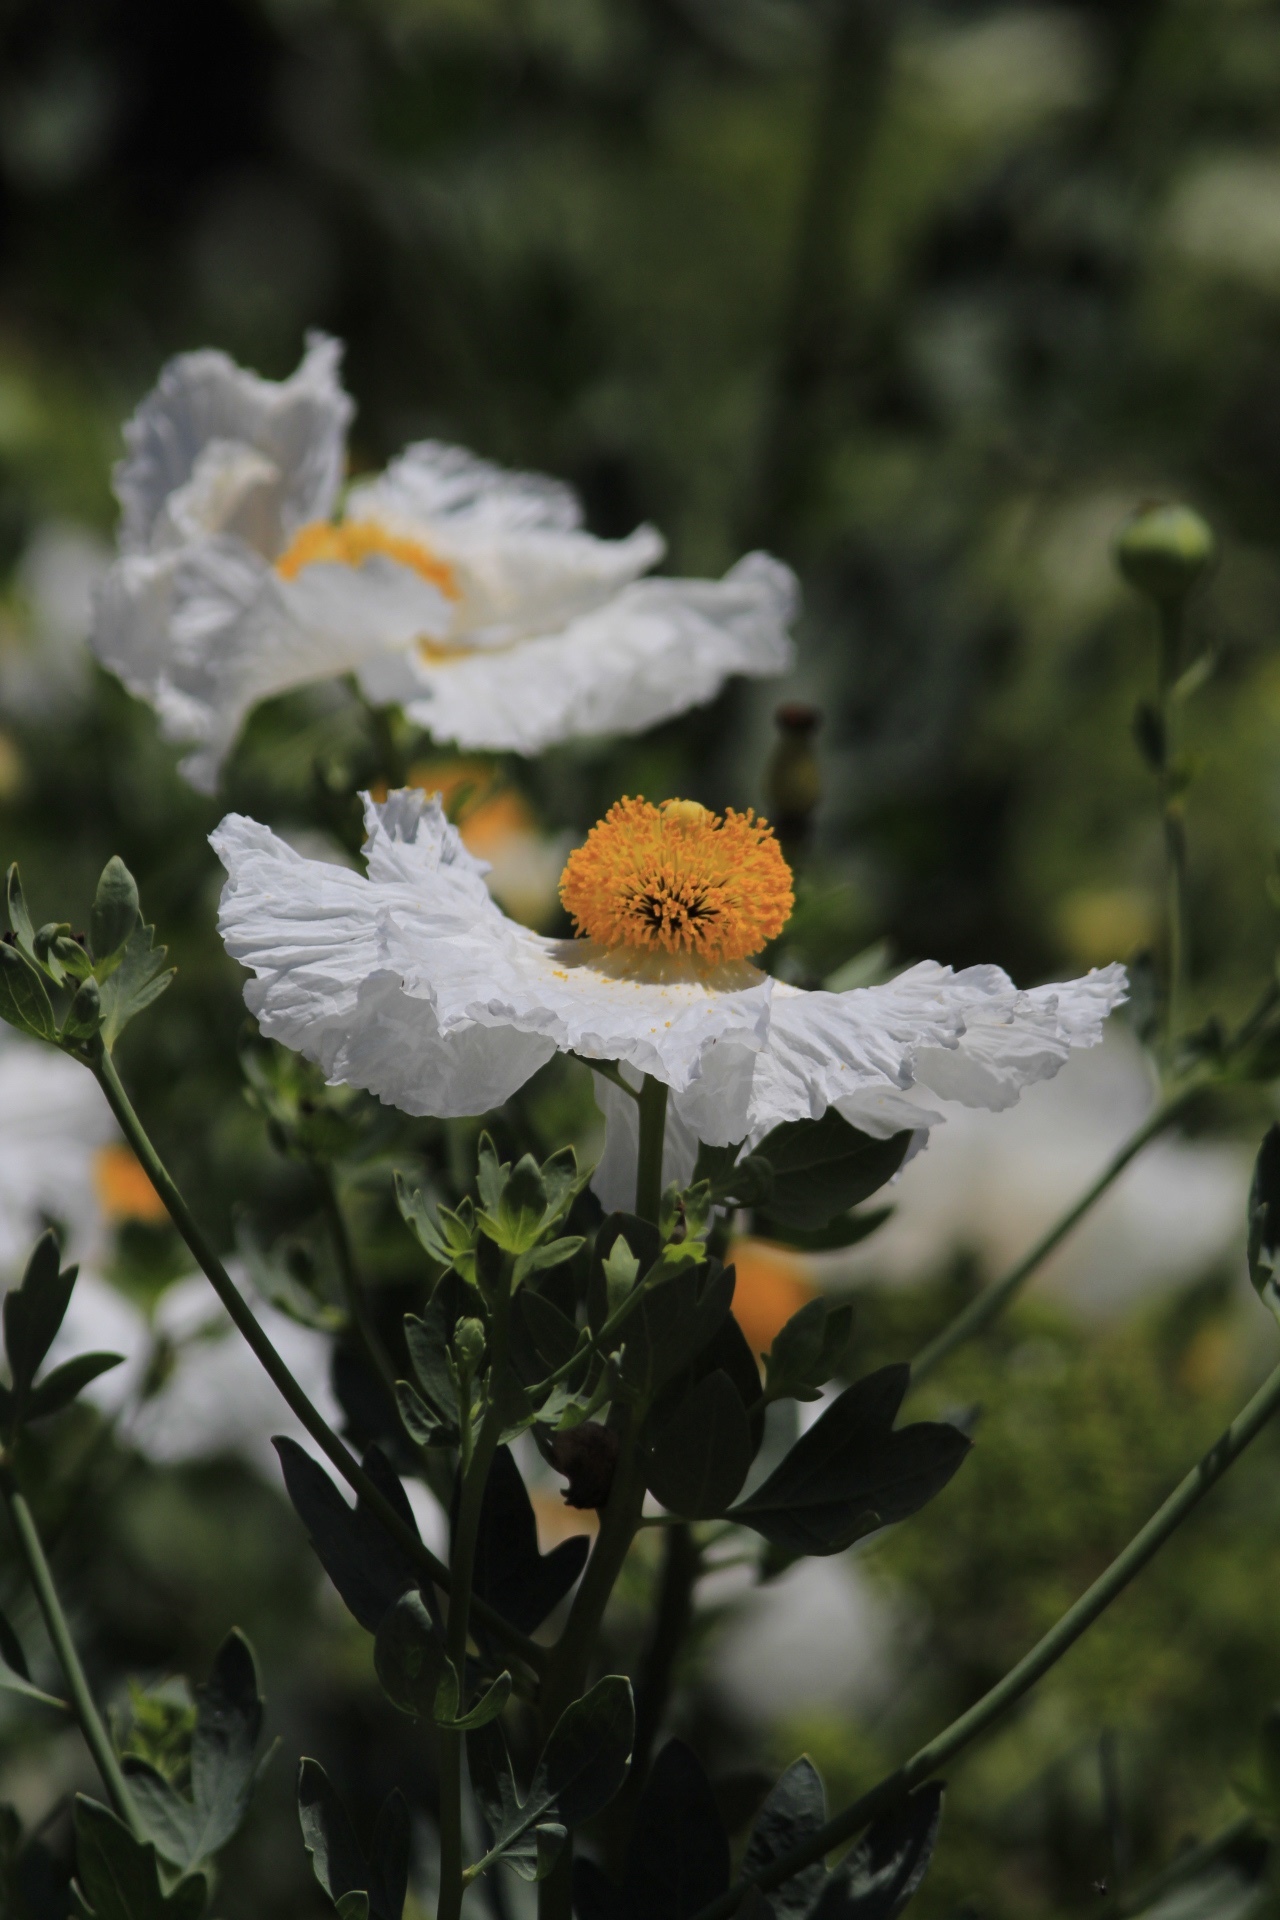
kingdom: Plantae
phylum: Tracheophyta
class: Magnoliopsida
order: Ranunculales
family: Papaveraceae
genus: Romneya
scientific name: Romneya coulteri
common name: California tree-poppy
